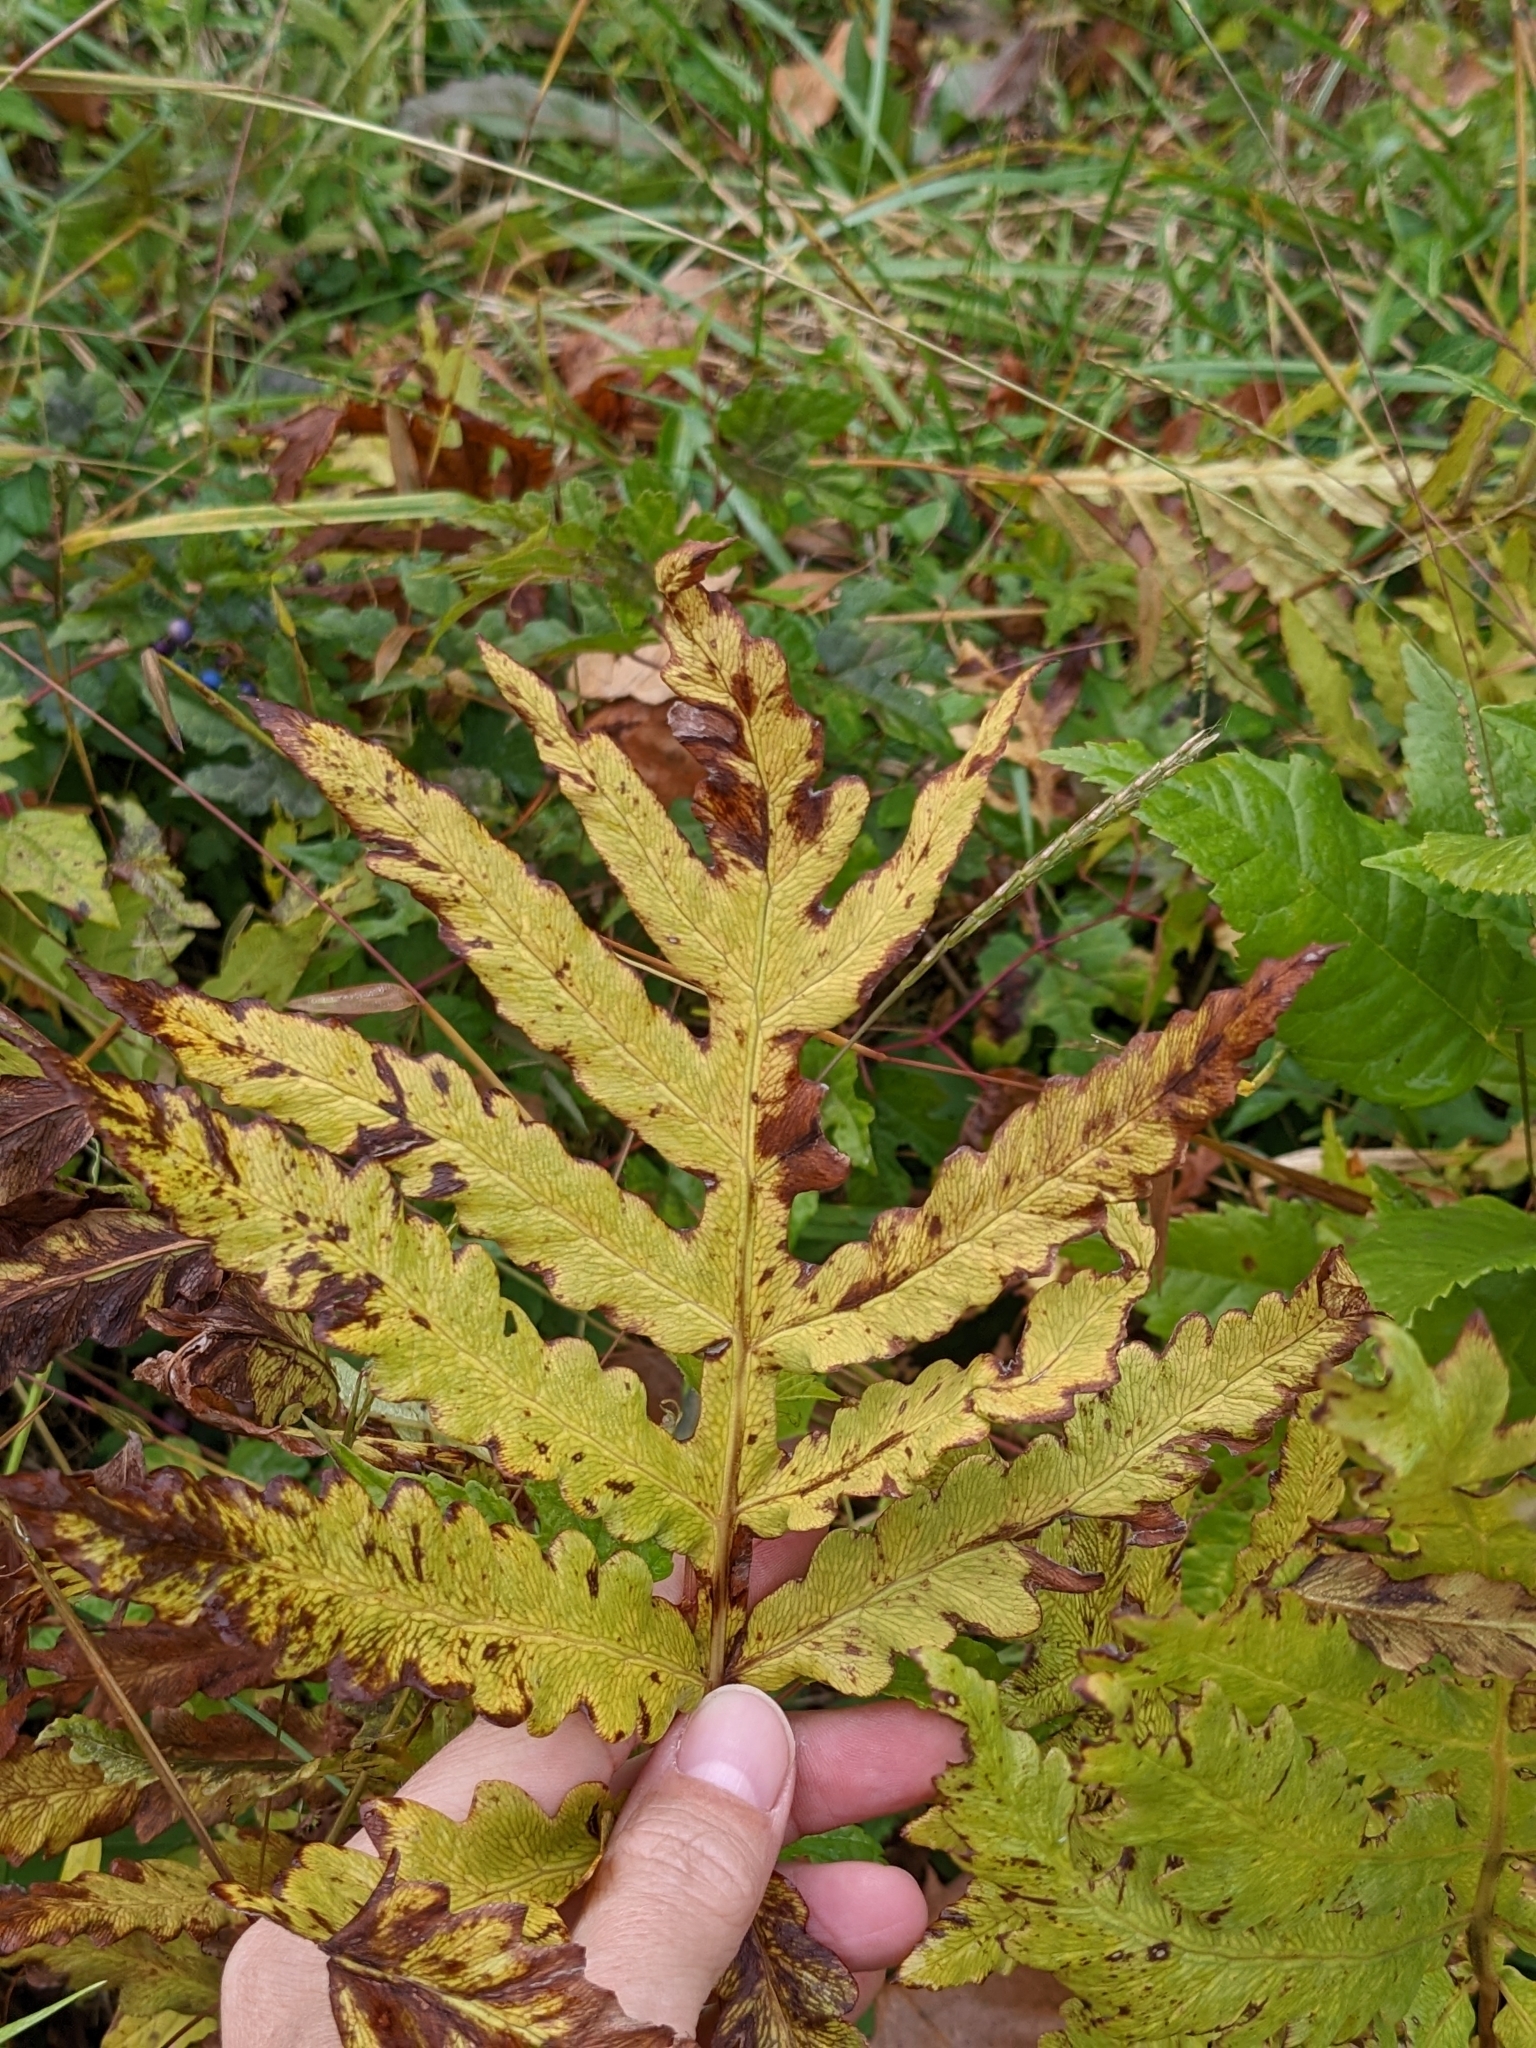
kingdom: Plantae
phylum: Tracheophyta
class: Polypodiopsida
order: Polypodiales
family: Onocleaceae
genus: Onoclea
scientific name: Onoclea sensibilis
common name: Sensitive fern
